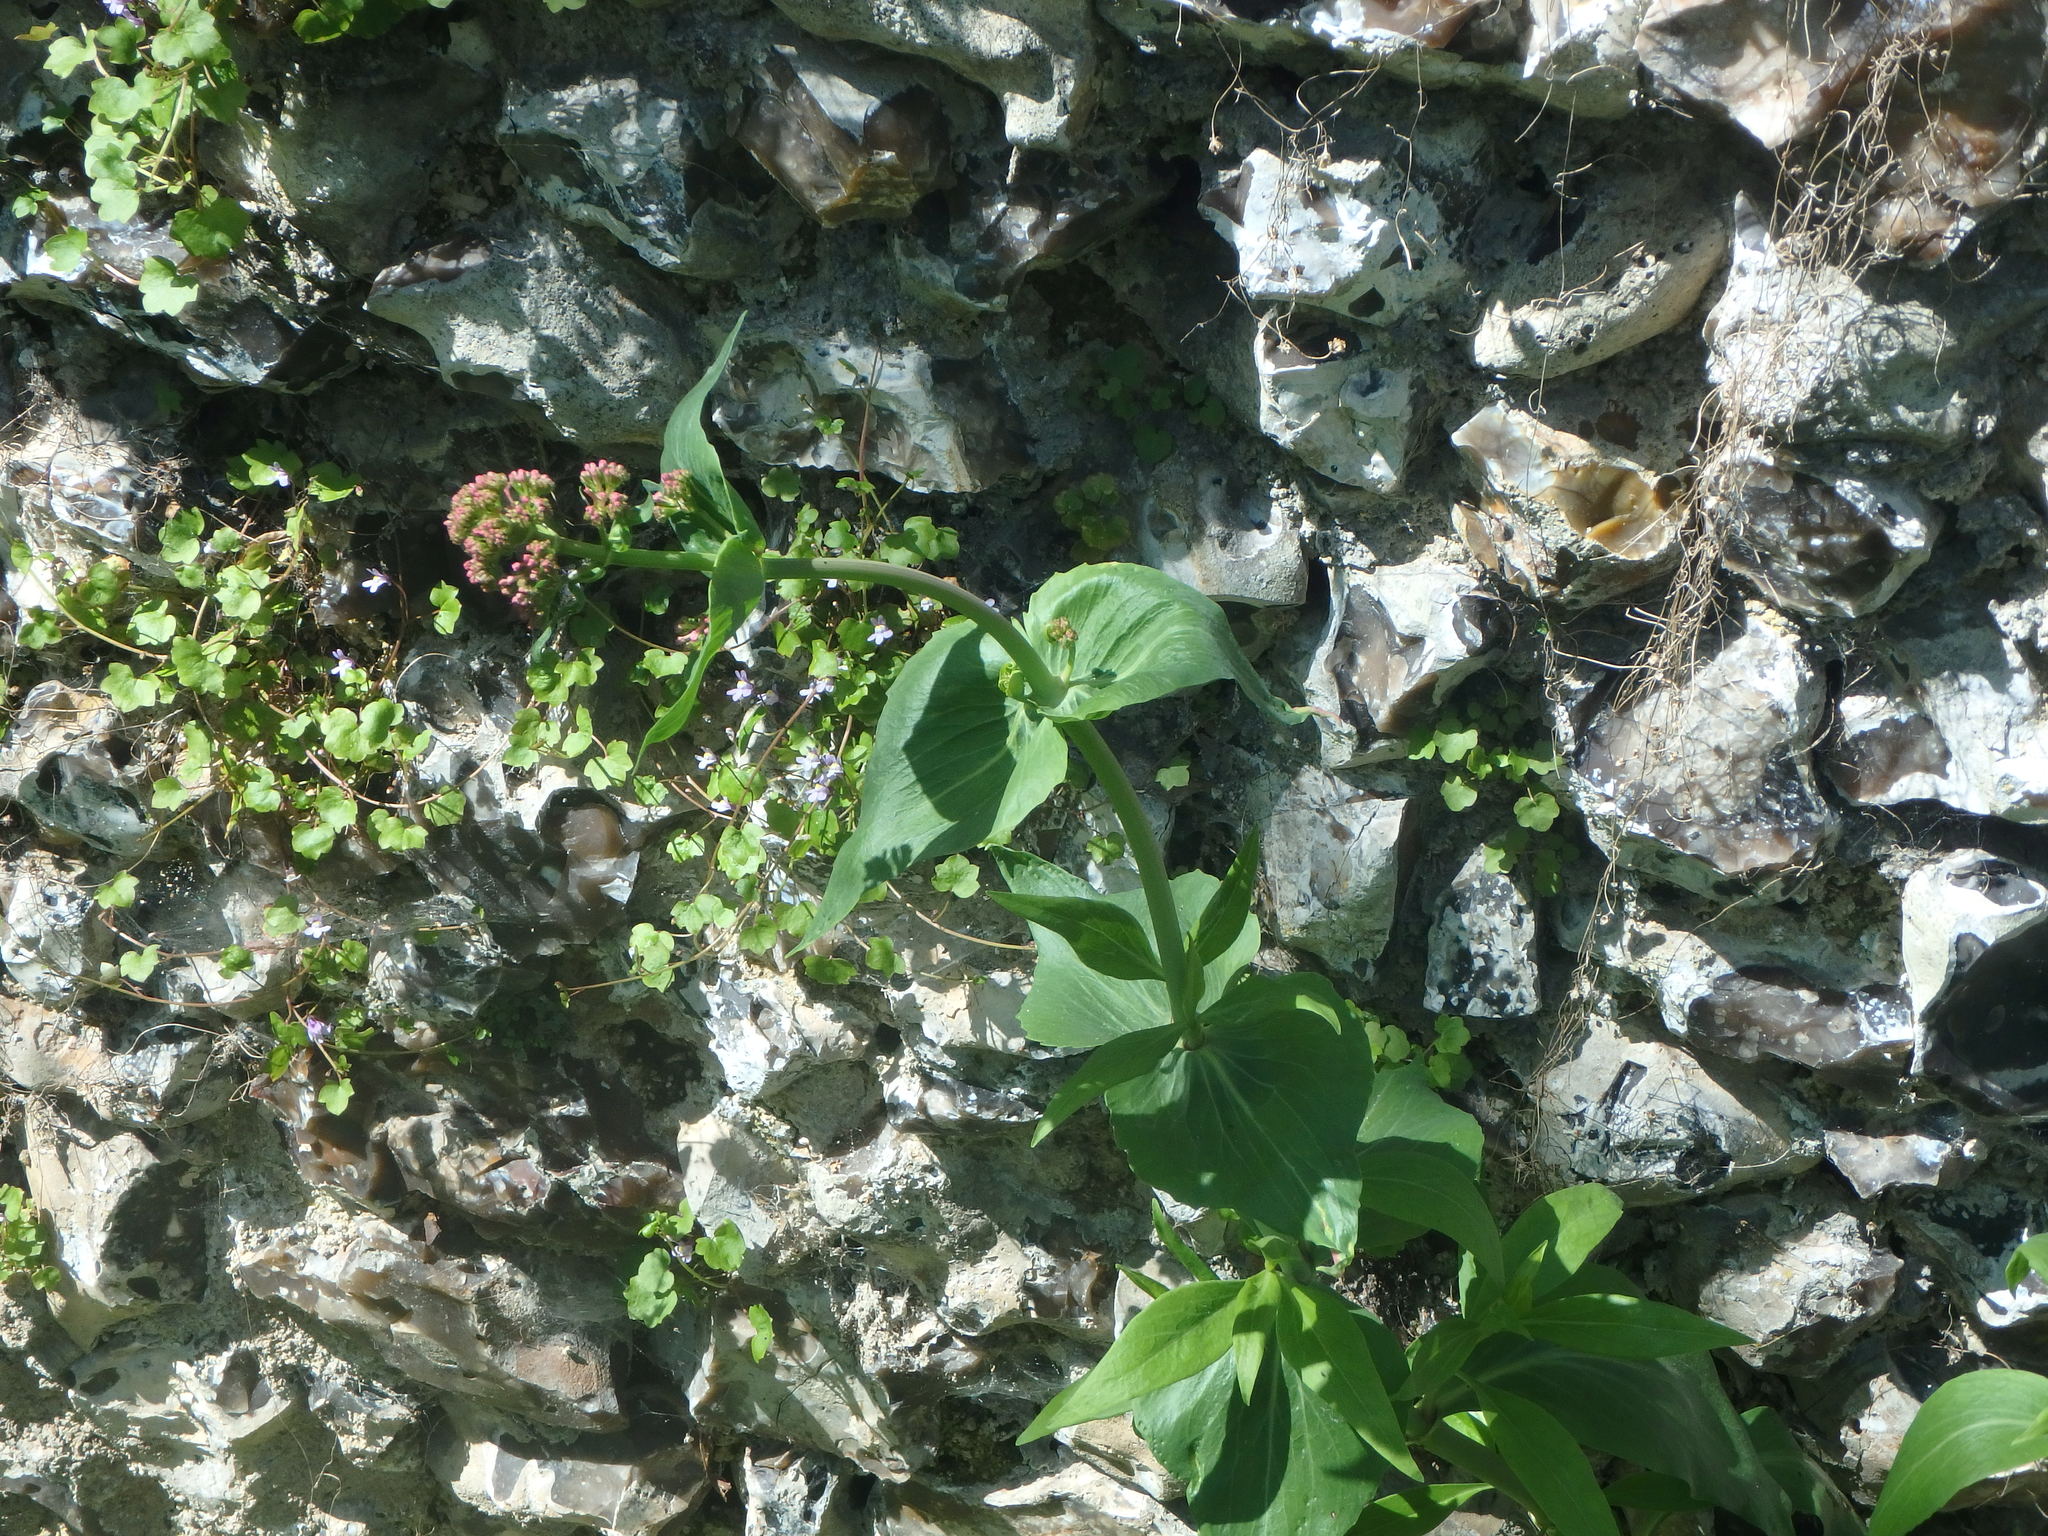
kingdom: Plantae
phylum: Tracheophyta
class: Magnoliopsida
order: Dipsacales
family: Caprifoliaceae
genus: Centranthus
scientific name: Centranthus ruber
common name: Red valerian
